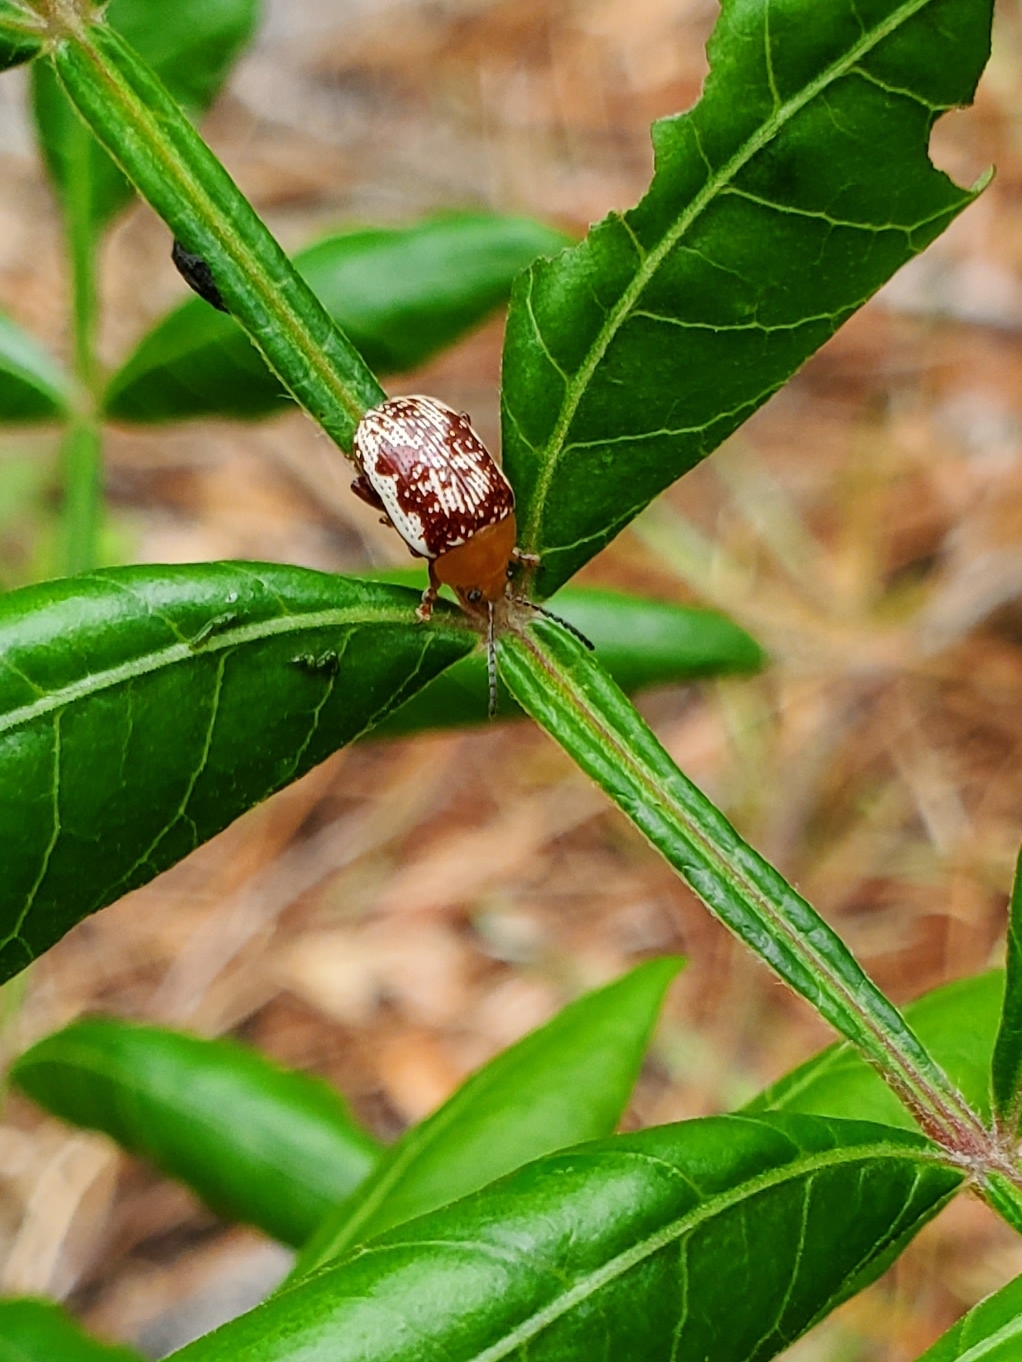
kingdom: Animalia
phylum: Arthropoda
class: Insecta
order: Coleoptera
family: Chrysomelidae
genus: Blepharida
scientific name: Blepharida rhois
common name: Sumac flea beetle
